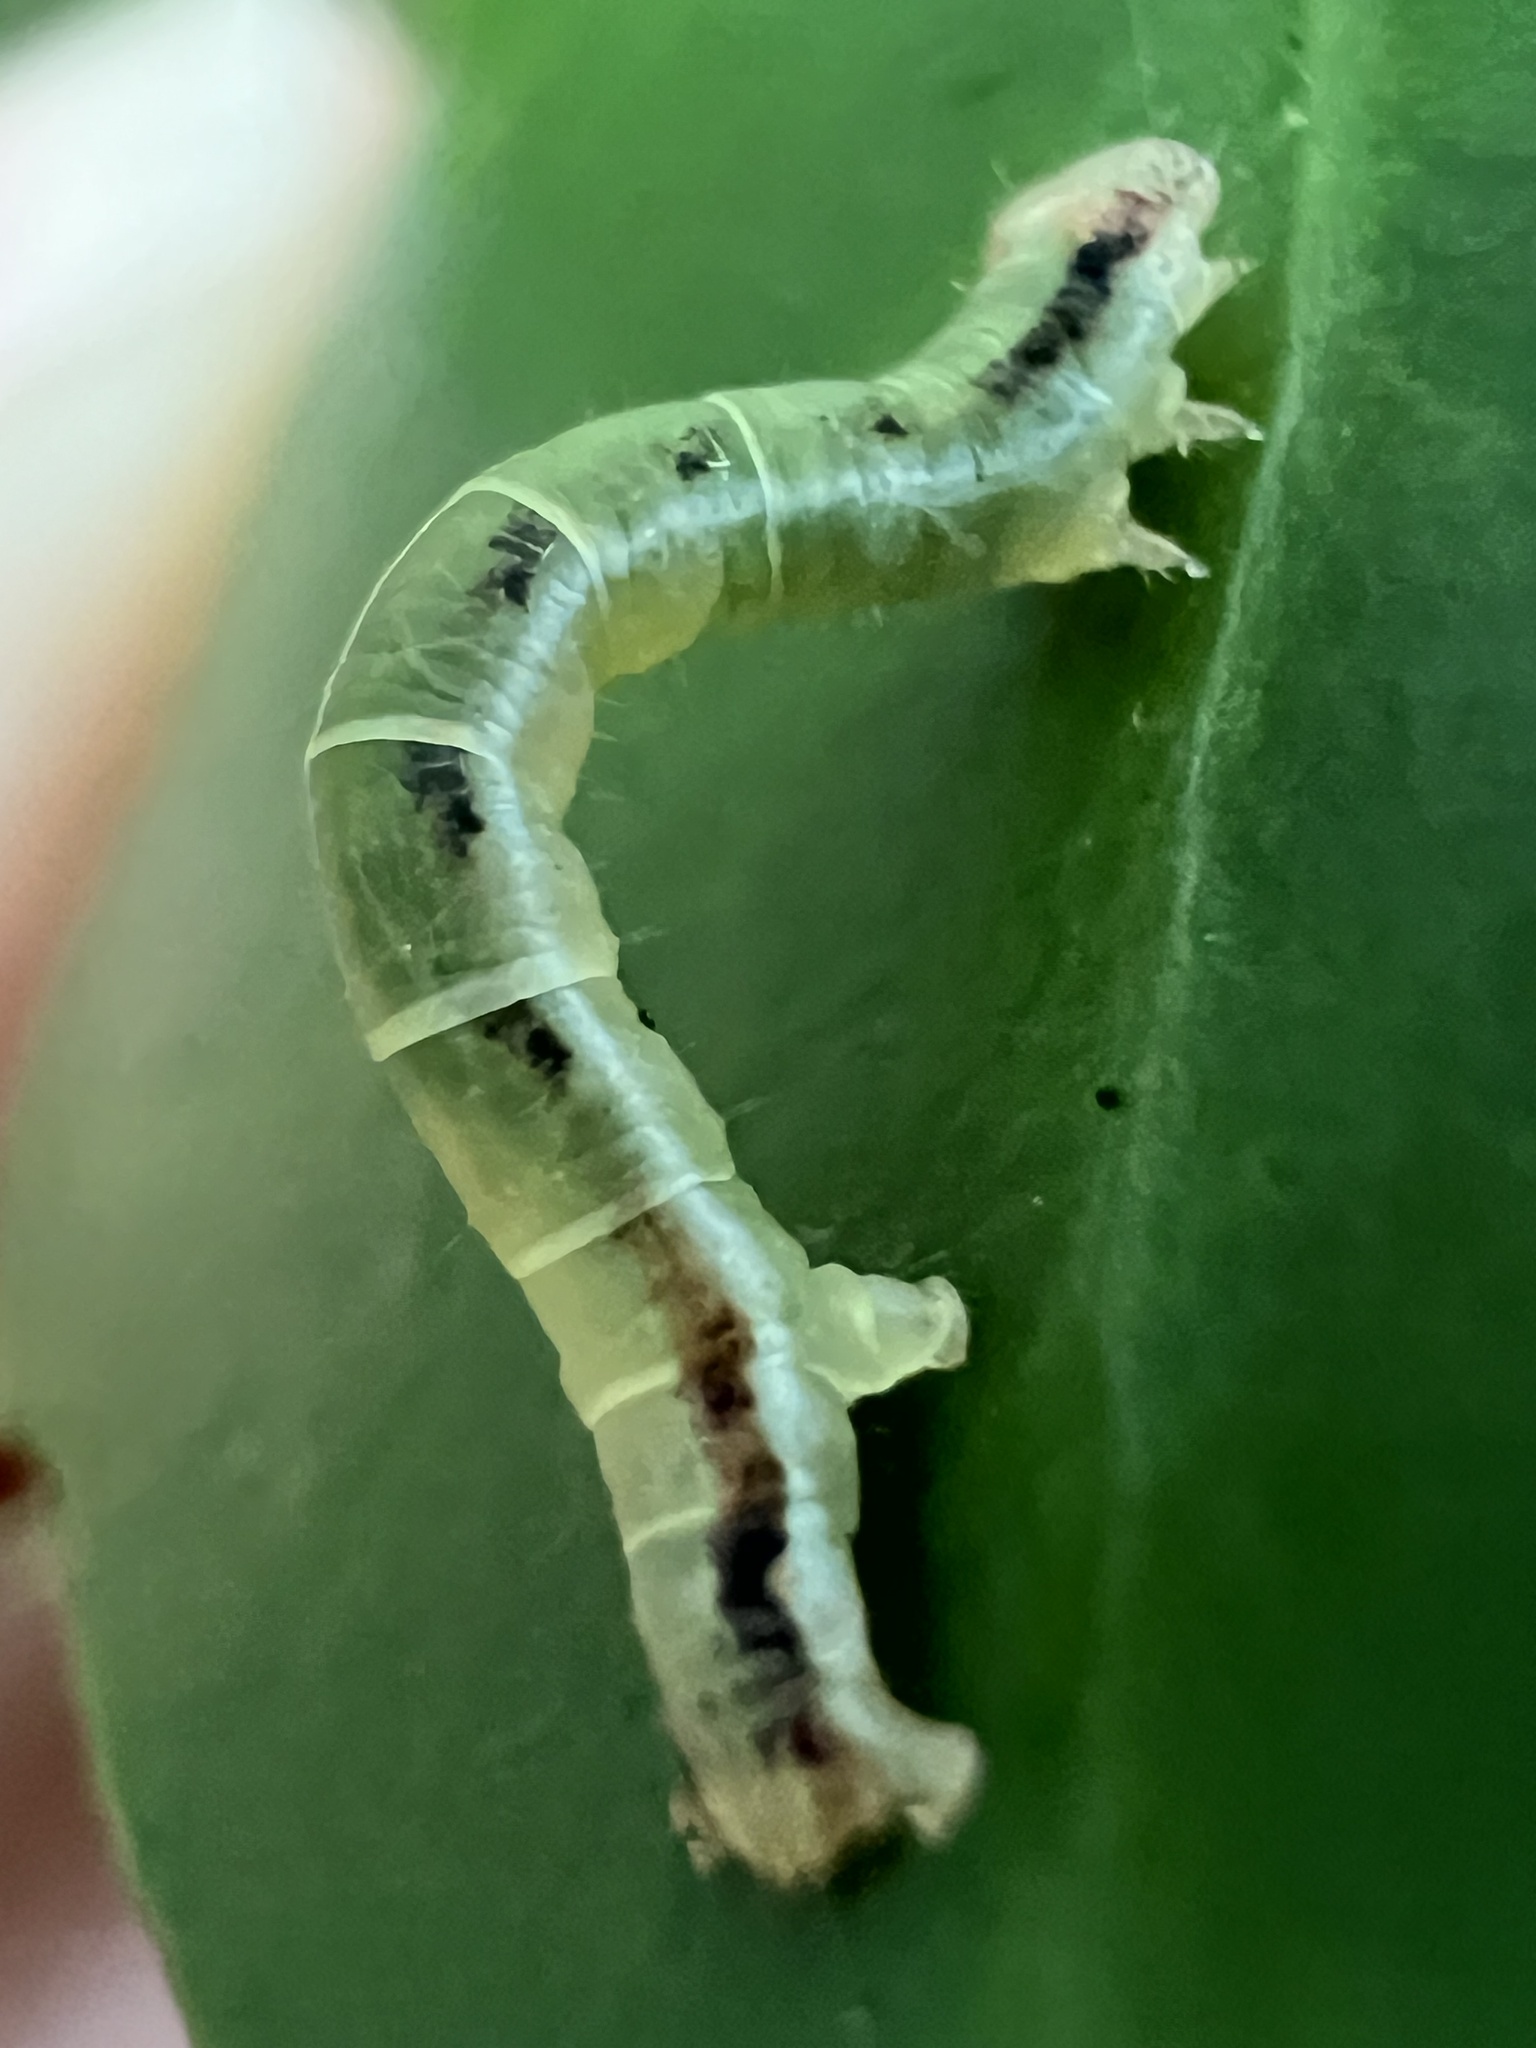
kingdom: Animalia
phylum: Arthropoda
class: Insecta
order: Lepidoptera
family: Geometridae
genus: Cleora
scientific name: Cleora scriptaria
